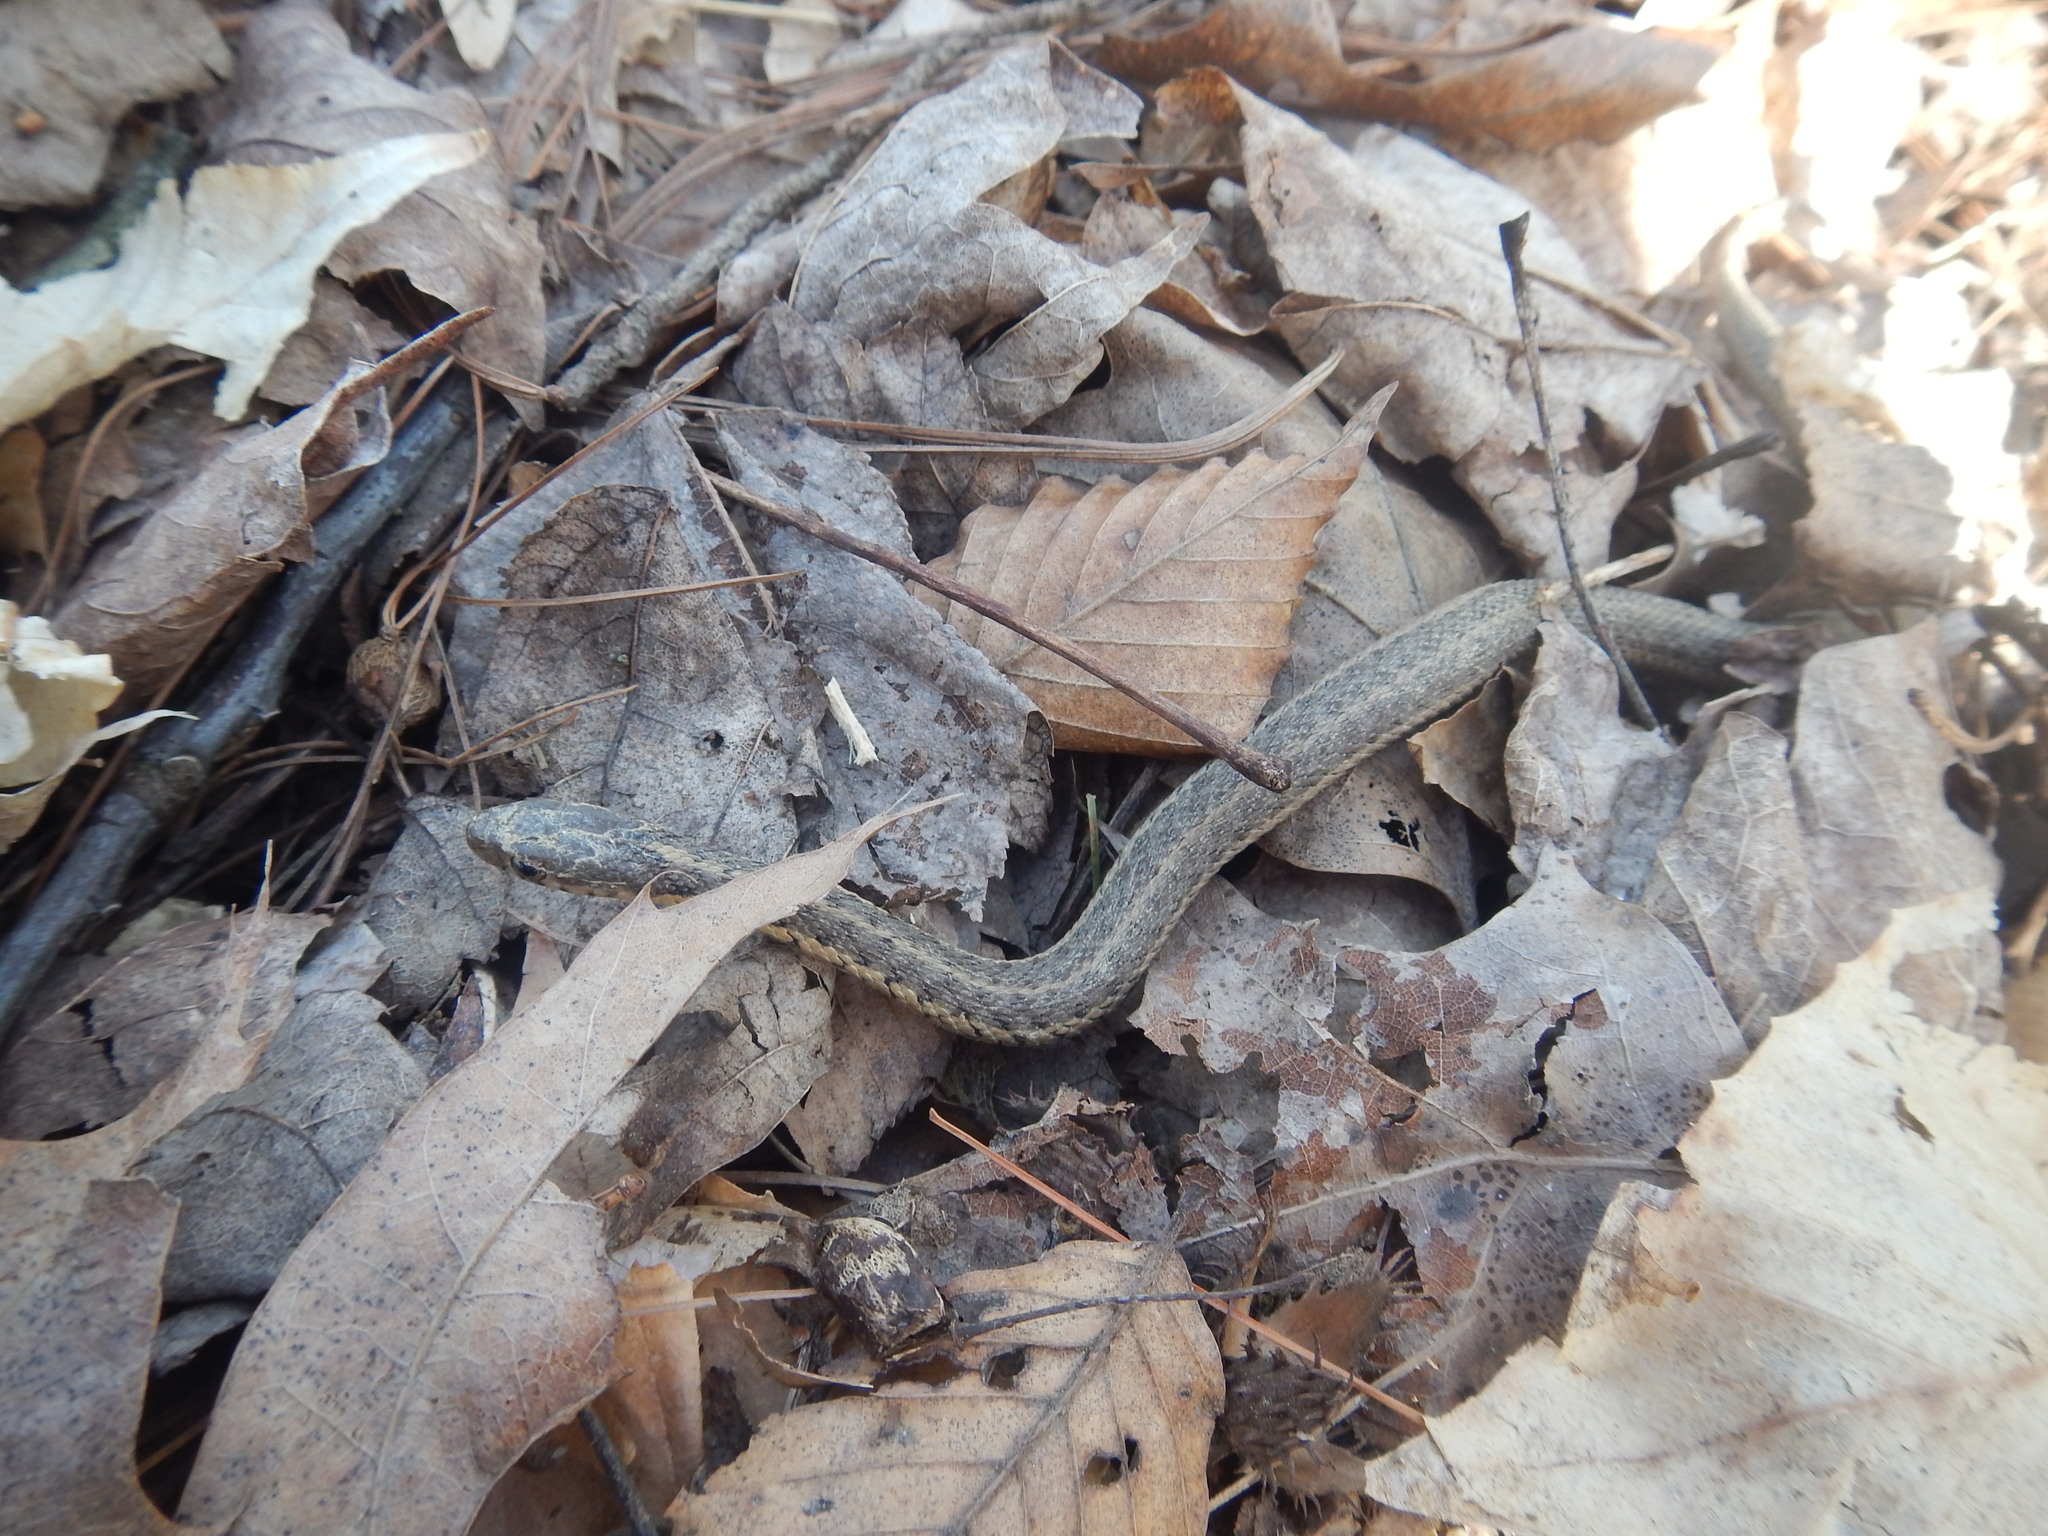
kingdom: Animalia
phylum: Chordata
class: Squamata
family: Colubridae
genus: Thamnophis
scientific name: Thamnophis sirtalis
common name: Common garter snake
